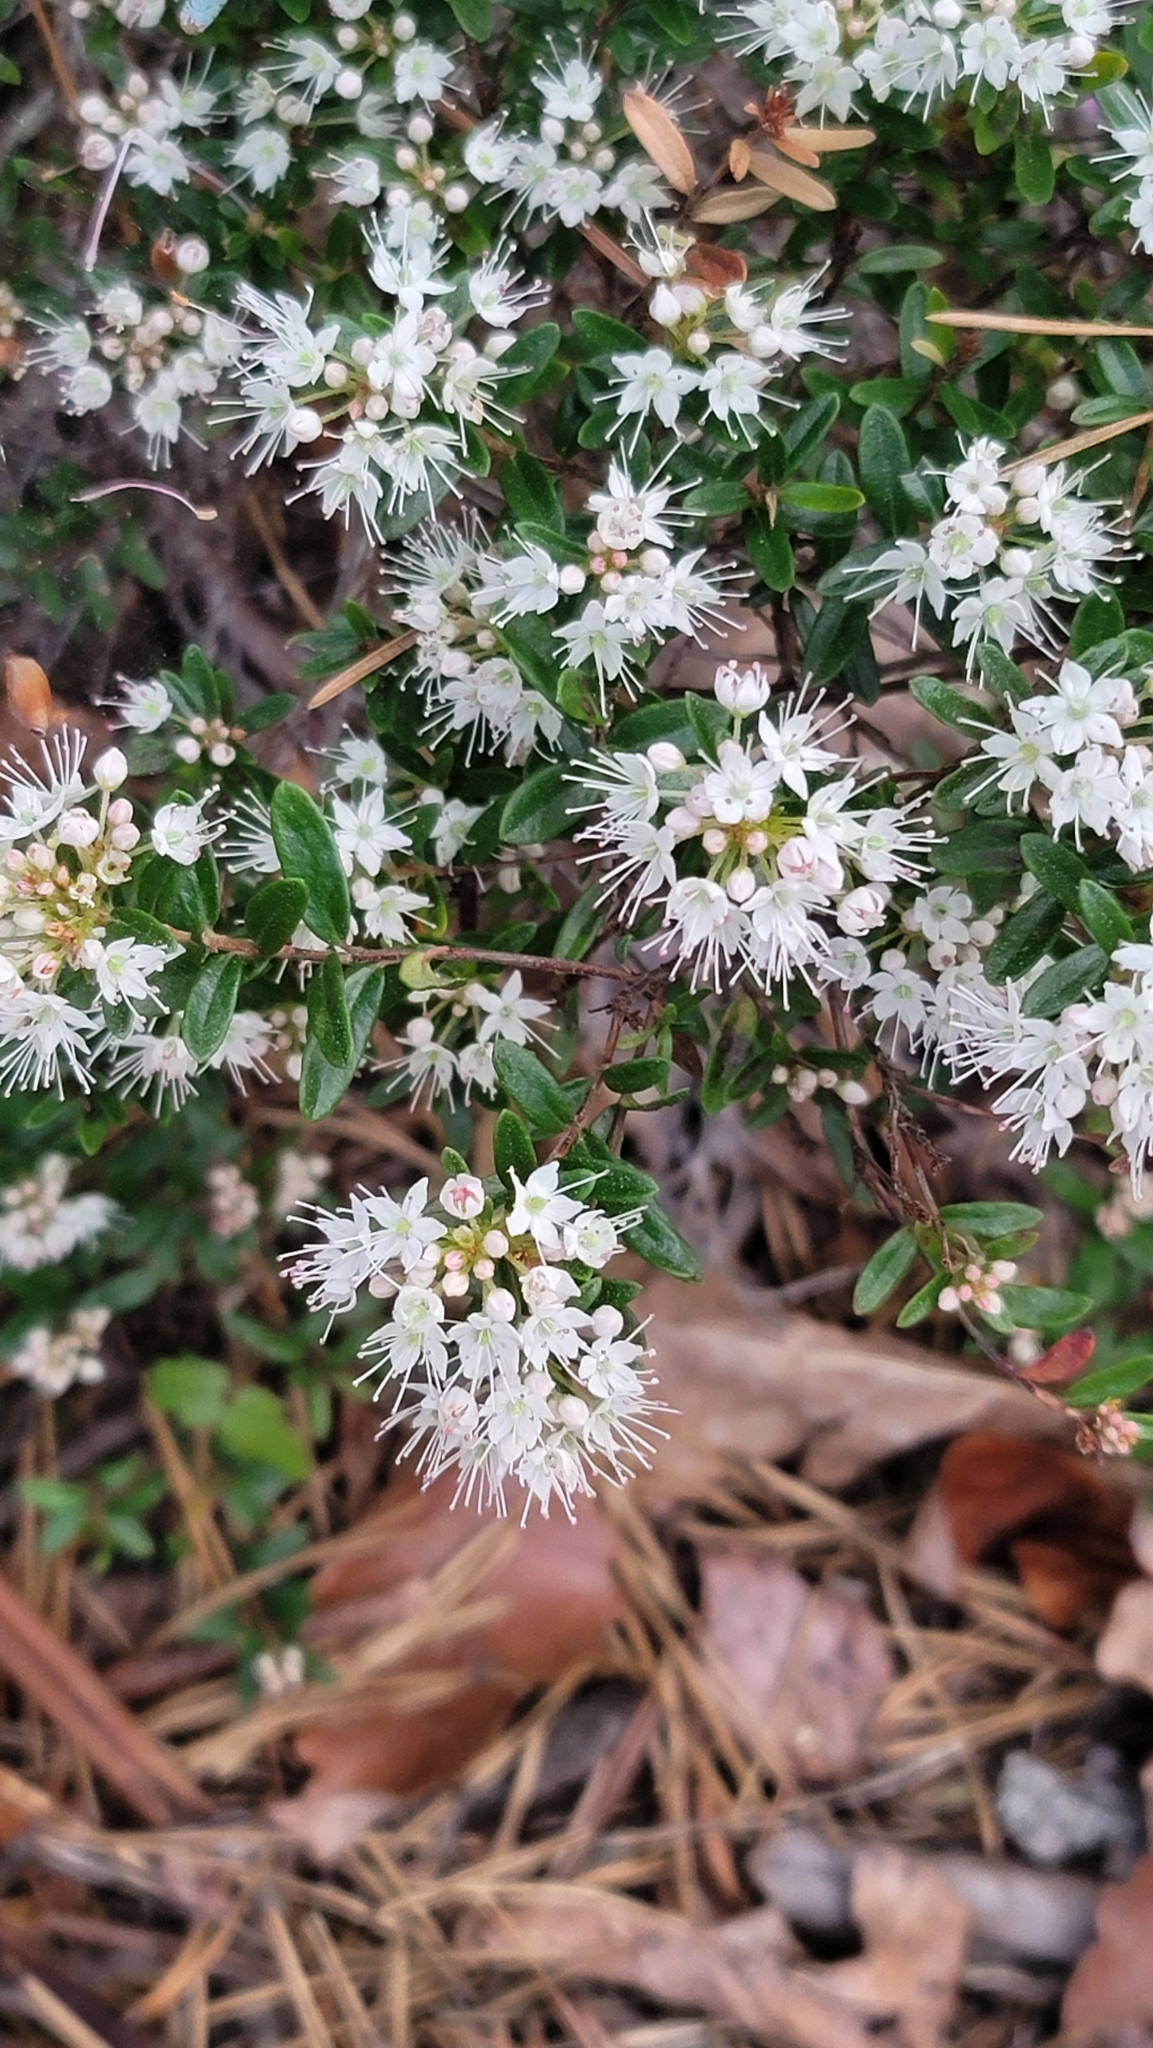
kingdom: Plantae
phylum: Tracheophyta
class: Magnoliopsida
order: Ericales
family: Ericaceae
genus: Kalmia
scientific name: Kalmia buxifolia
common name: Sandmyrtle
